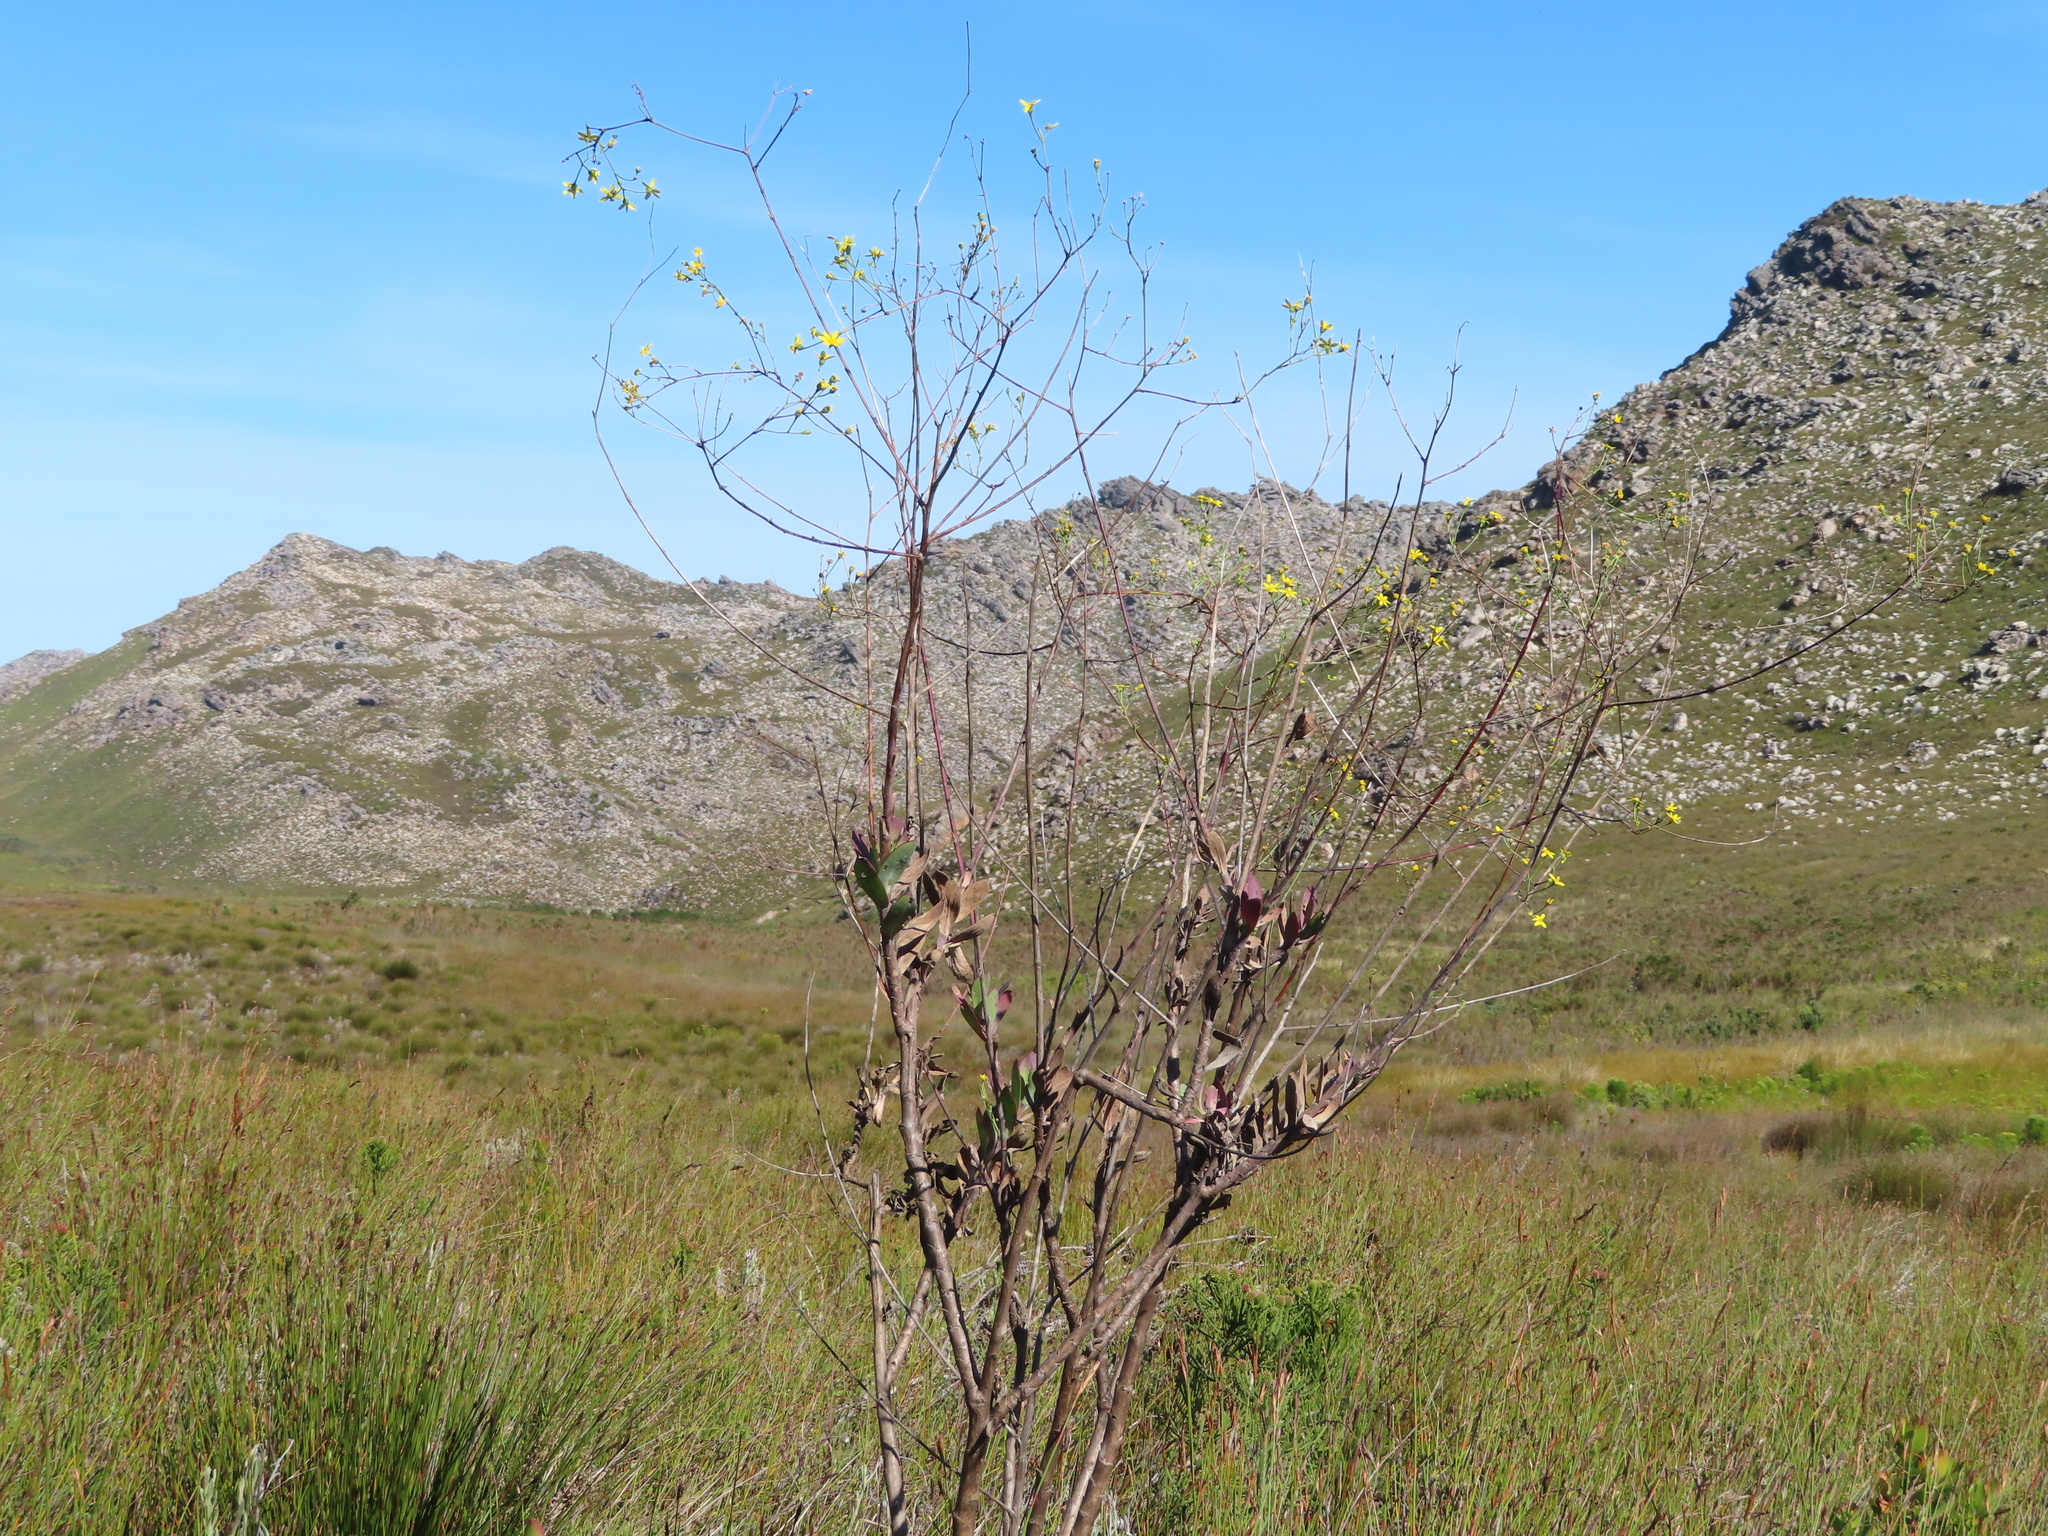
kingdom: Plantae
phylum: Tracheophyta
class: Magnoliopsida
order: Asterales
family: Asteraceae
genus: Othonna
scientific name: Othonna quinquedentata
